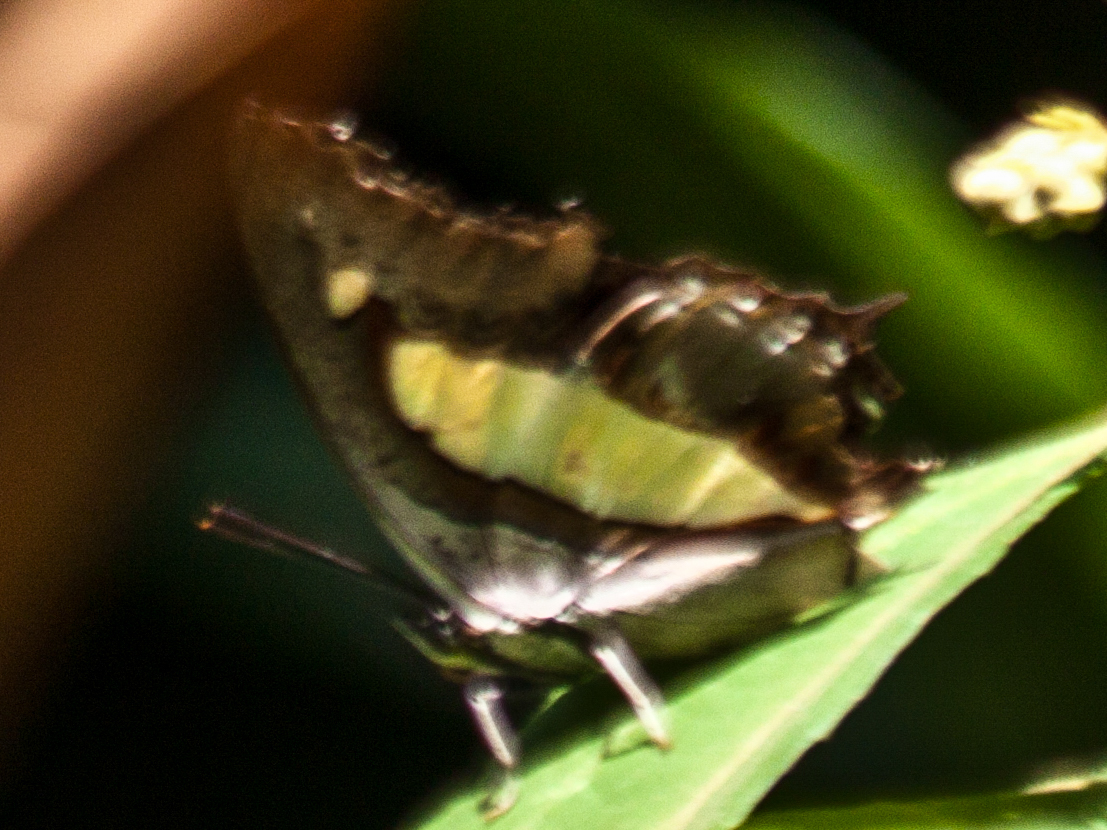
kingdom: Animalia
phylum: Arthropoda
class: Insecta
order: Lepidoptera
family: Nymphalidae
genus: Polyura
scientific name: Polyura athamas
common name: Common nawab
